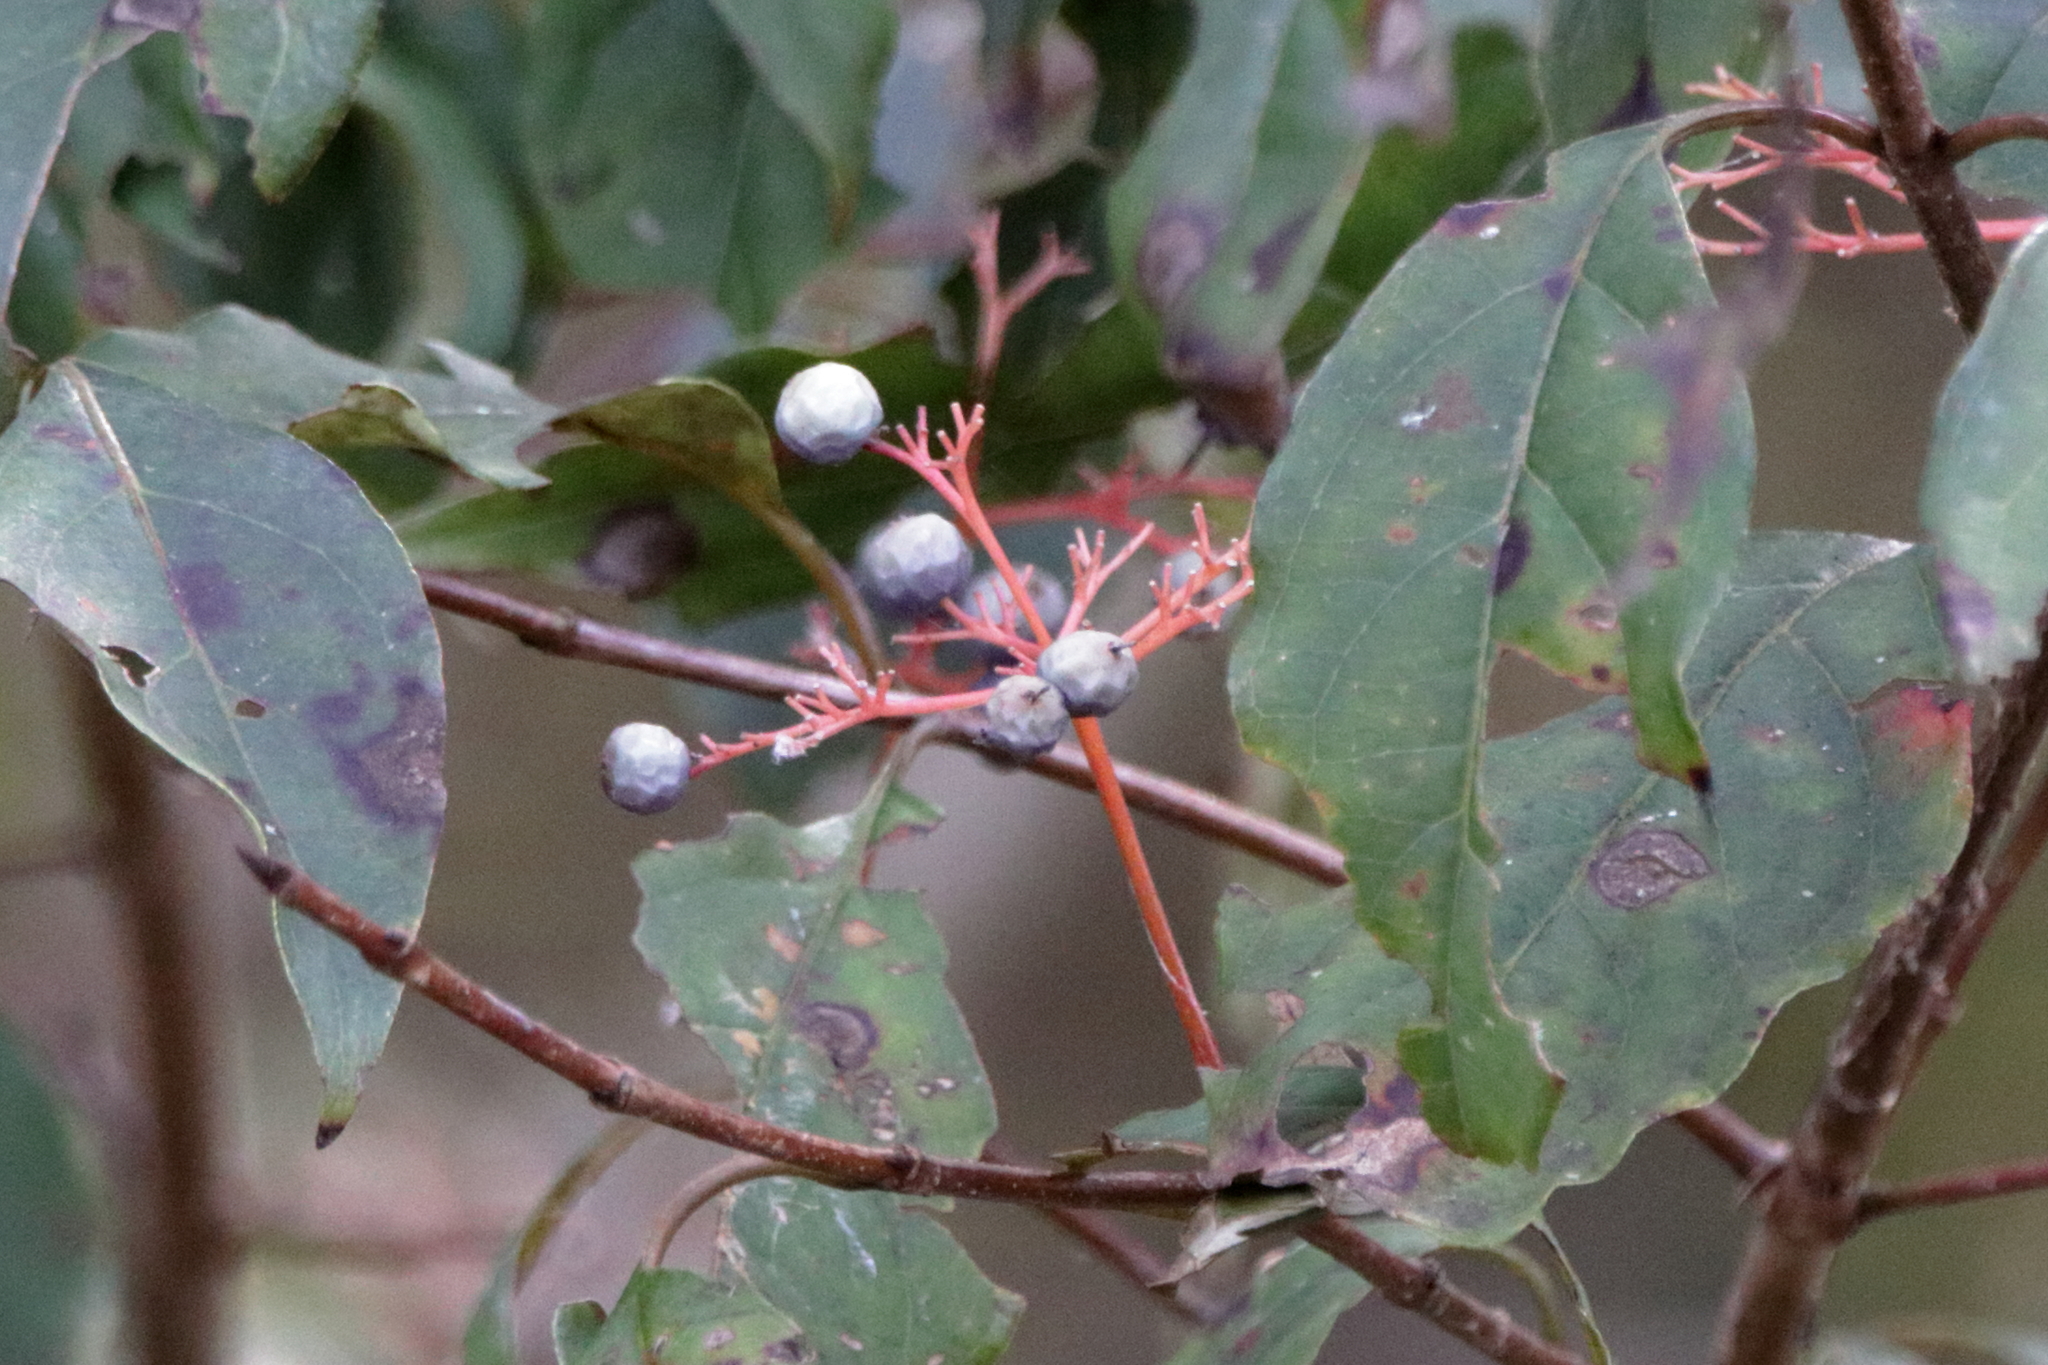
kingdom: Plantae
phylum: Tracheophyta
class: Magnoliopsida
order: Cornales
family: Cornaceae
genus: Cornus
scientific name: Cornus foemina
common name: Swamp dogwood
